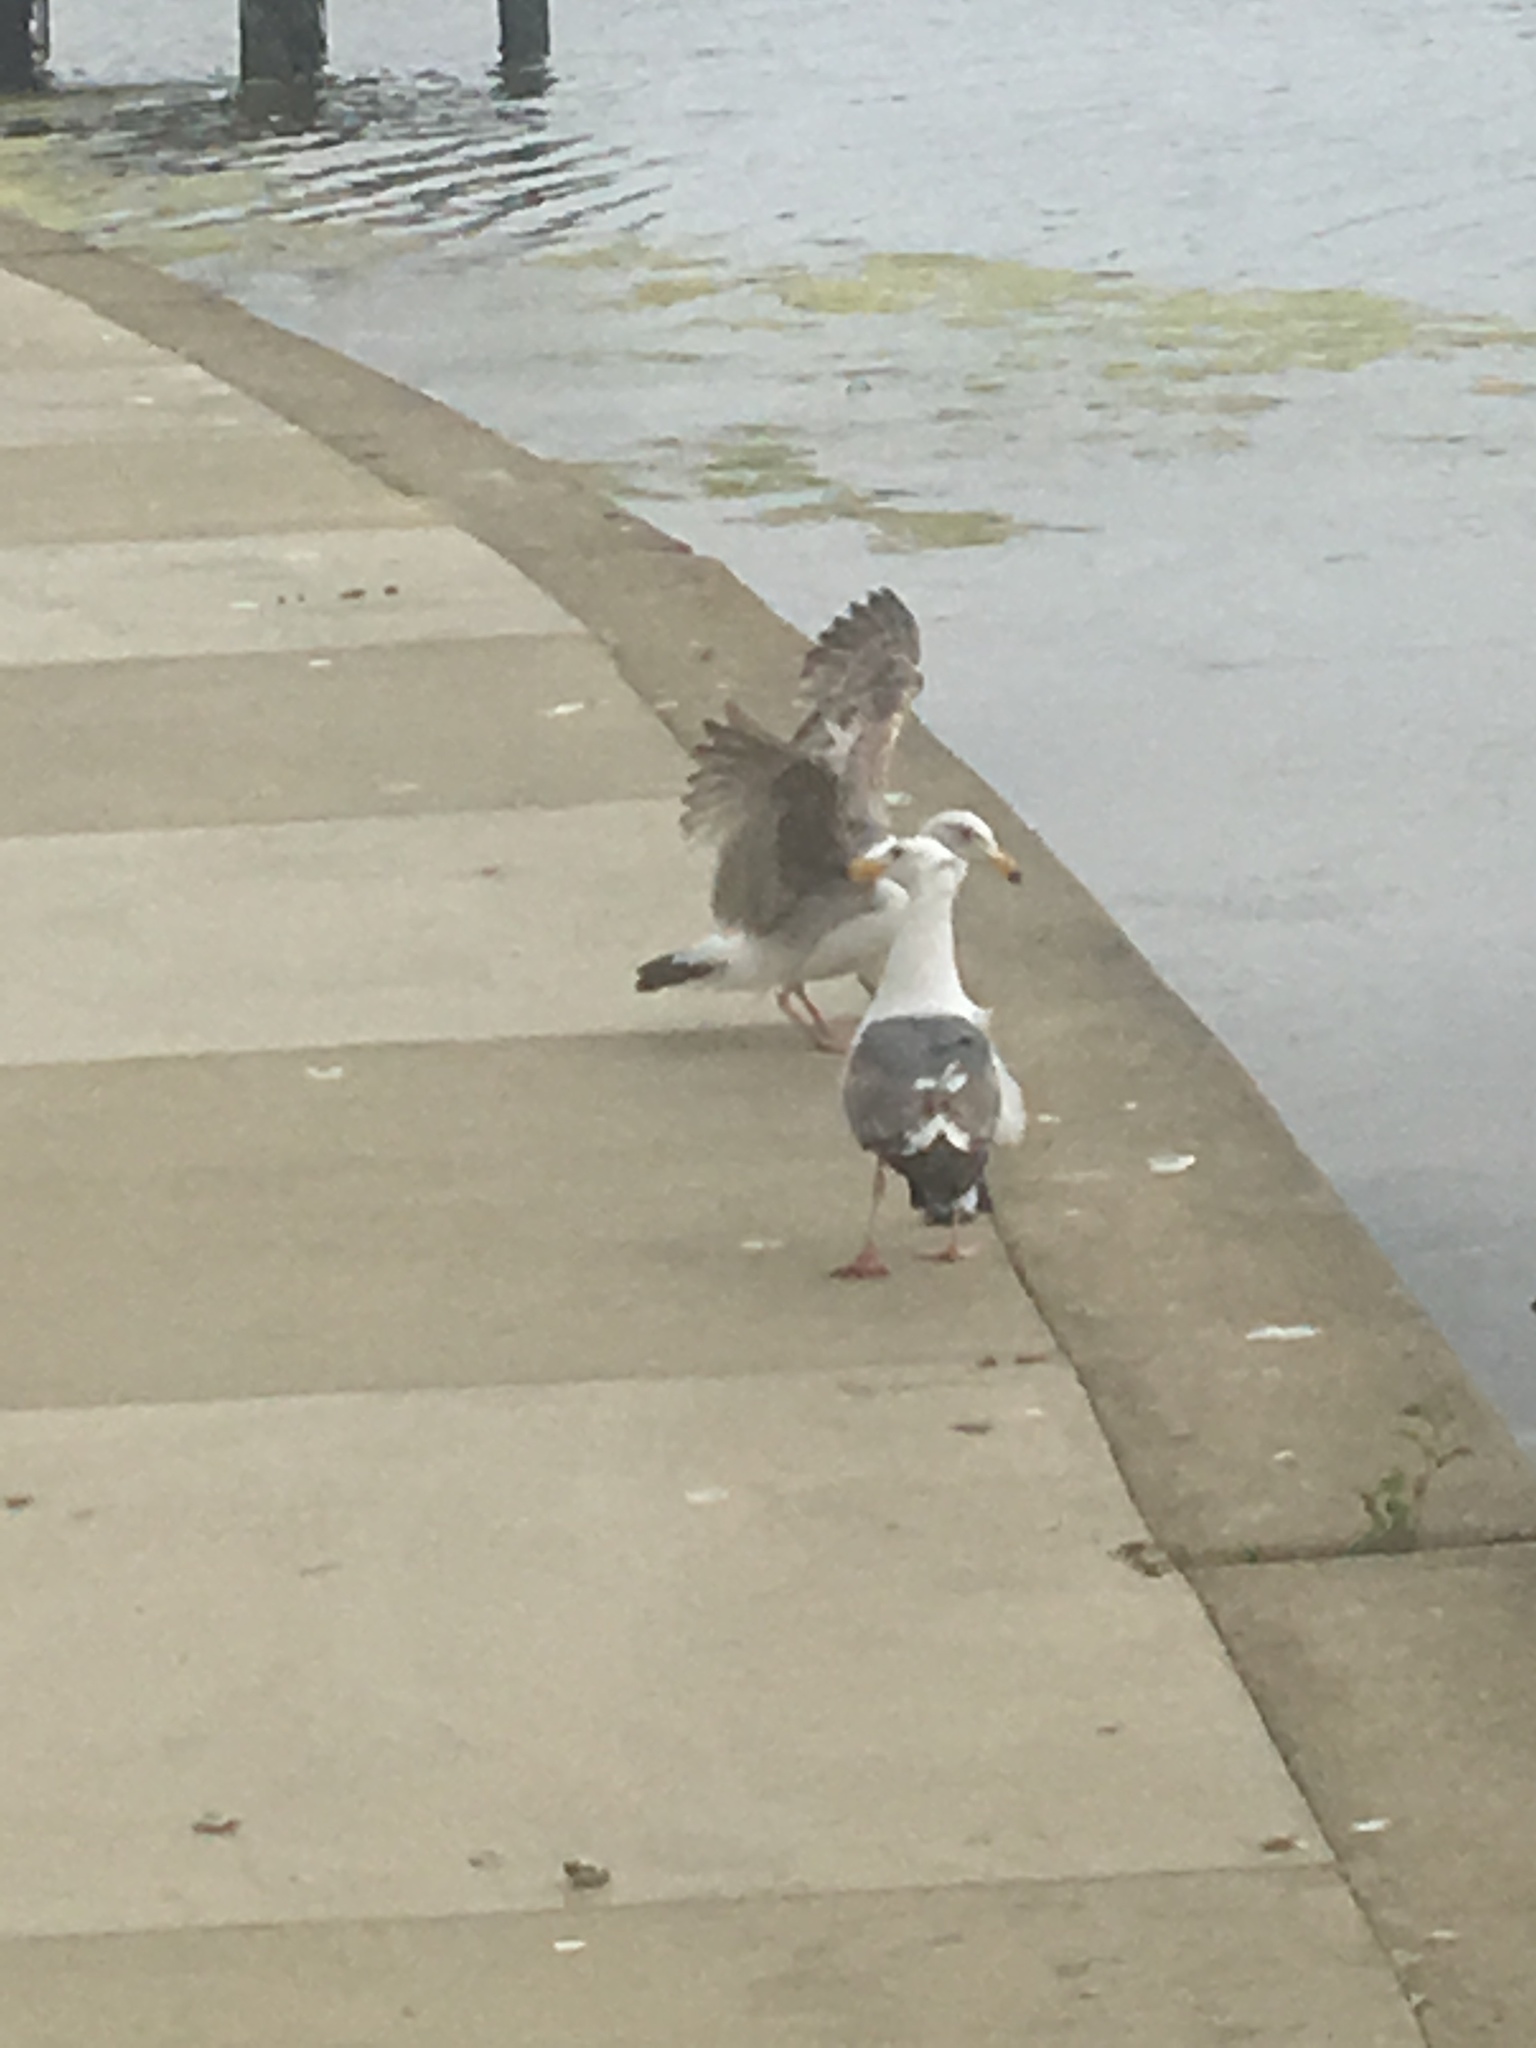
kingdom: Animalia
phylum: Chordata
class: Aves
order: Charadriiformes
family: Laridae
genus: Larus
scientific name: Larus occidentalis
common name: Western gull
